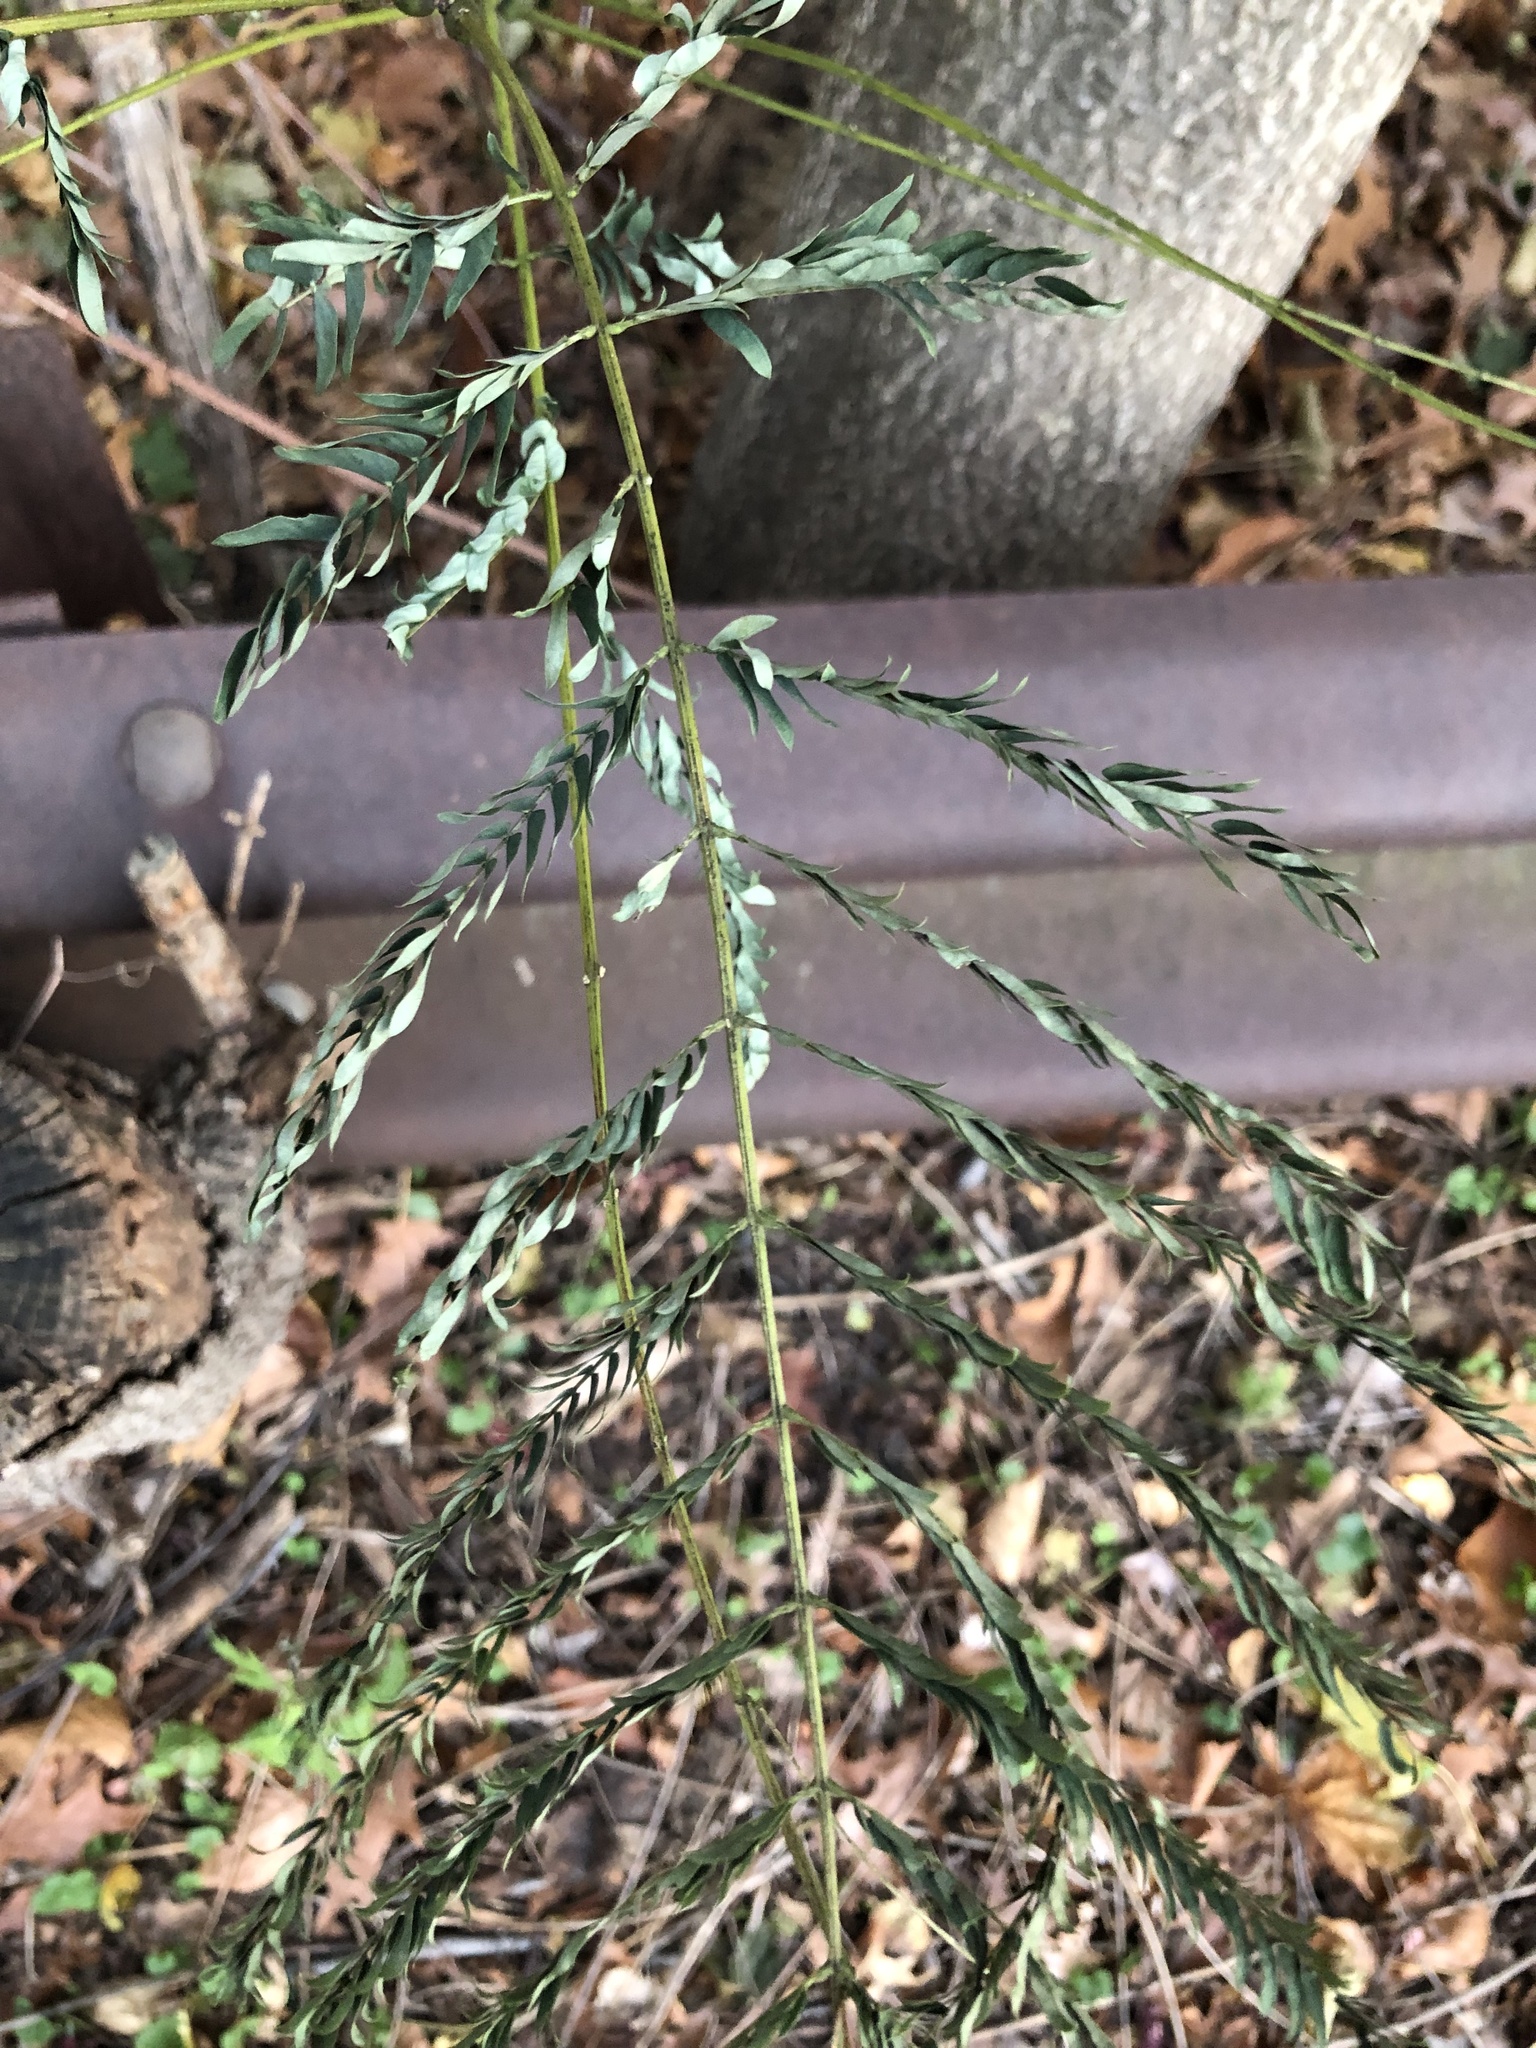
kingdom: Plantae
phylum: Tracheophyta
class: Magnoliopsida
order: Fabales
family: Fabaceae
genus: Albizia
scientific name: Albizia julibrissin
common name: Silktree
